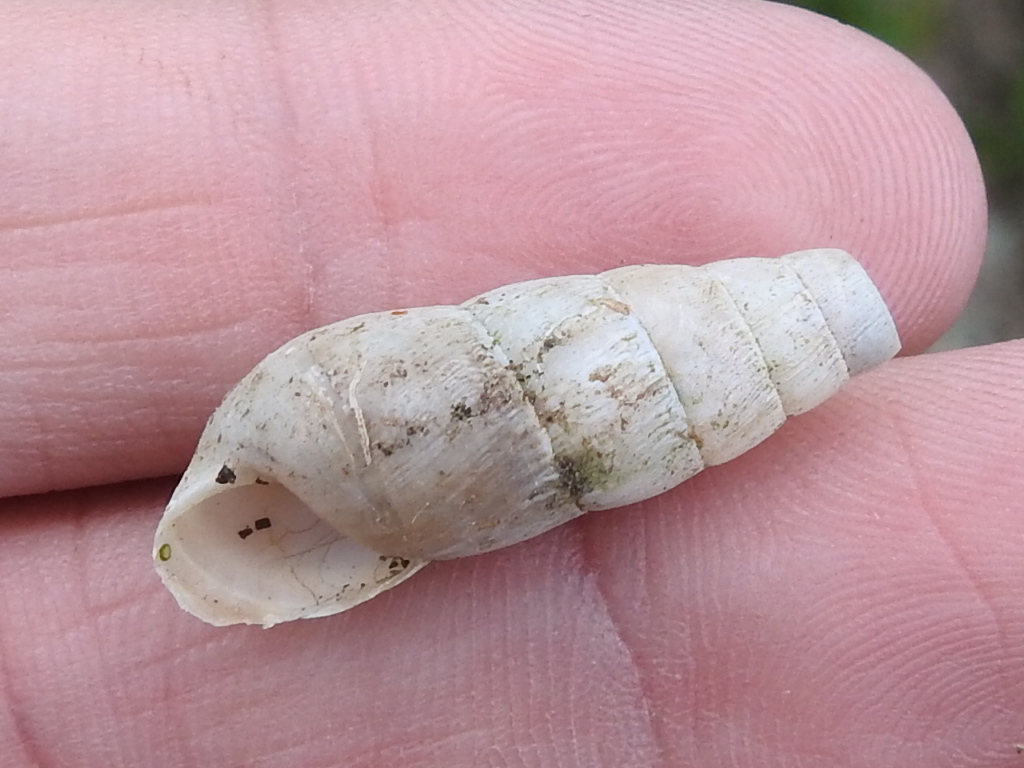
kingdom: Animalia
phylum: Mollusca
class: Gastropoda
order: Stylommatophora
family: Achatinidae
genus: Rumina
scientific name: Rumina decollata
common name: Decollate snail
